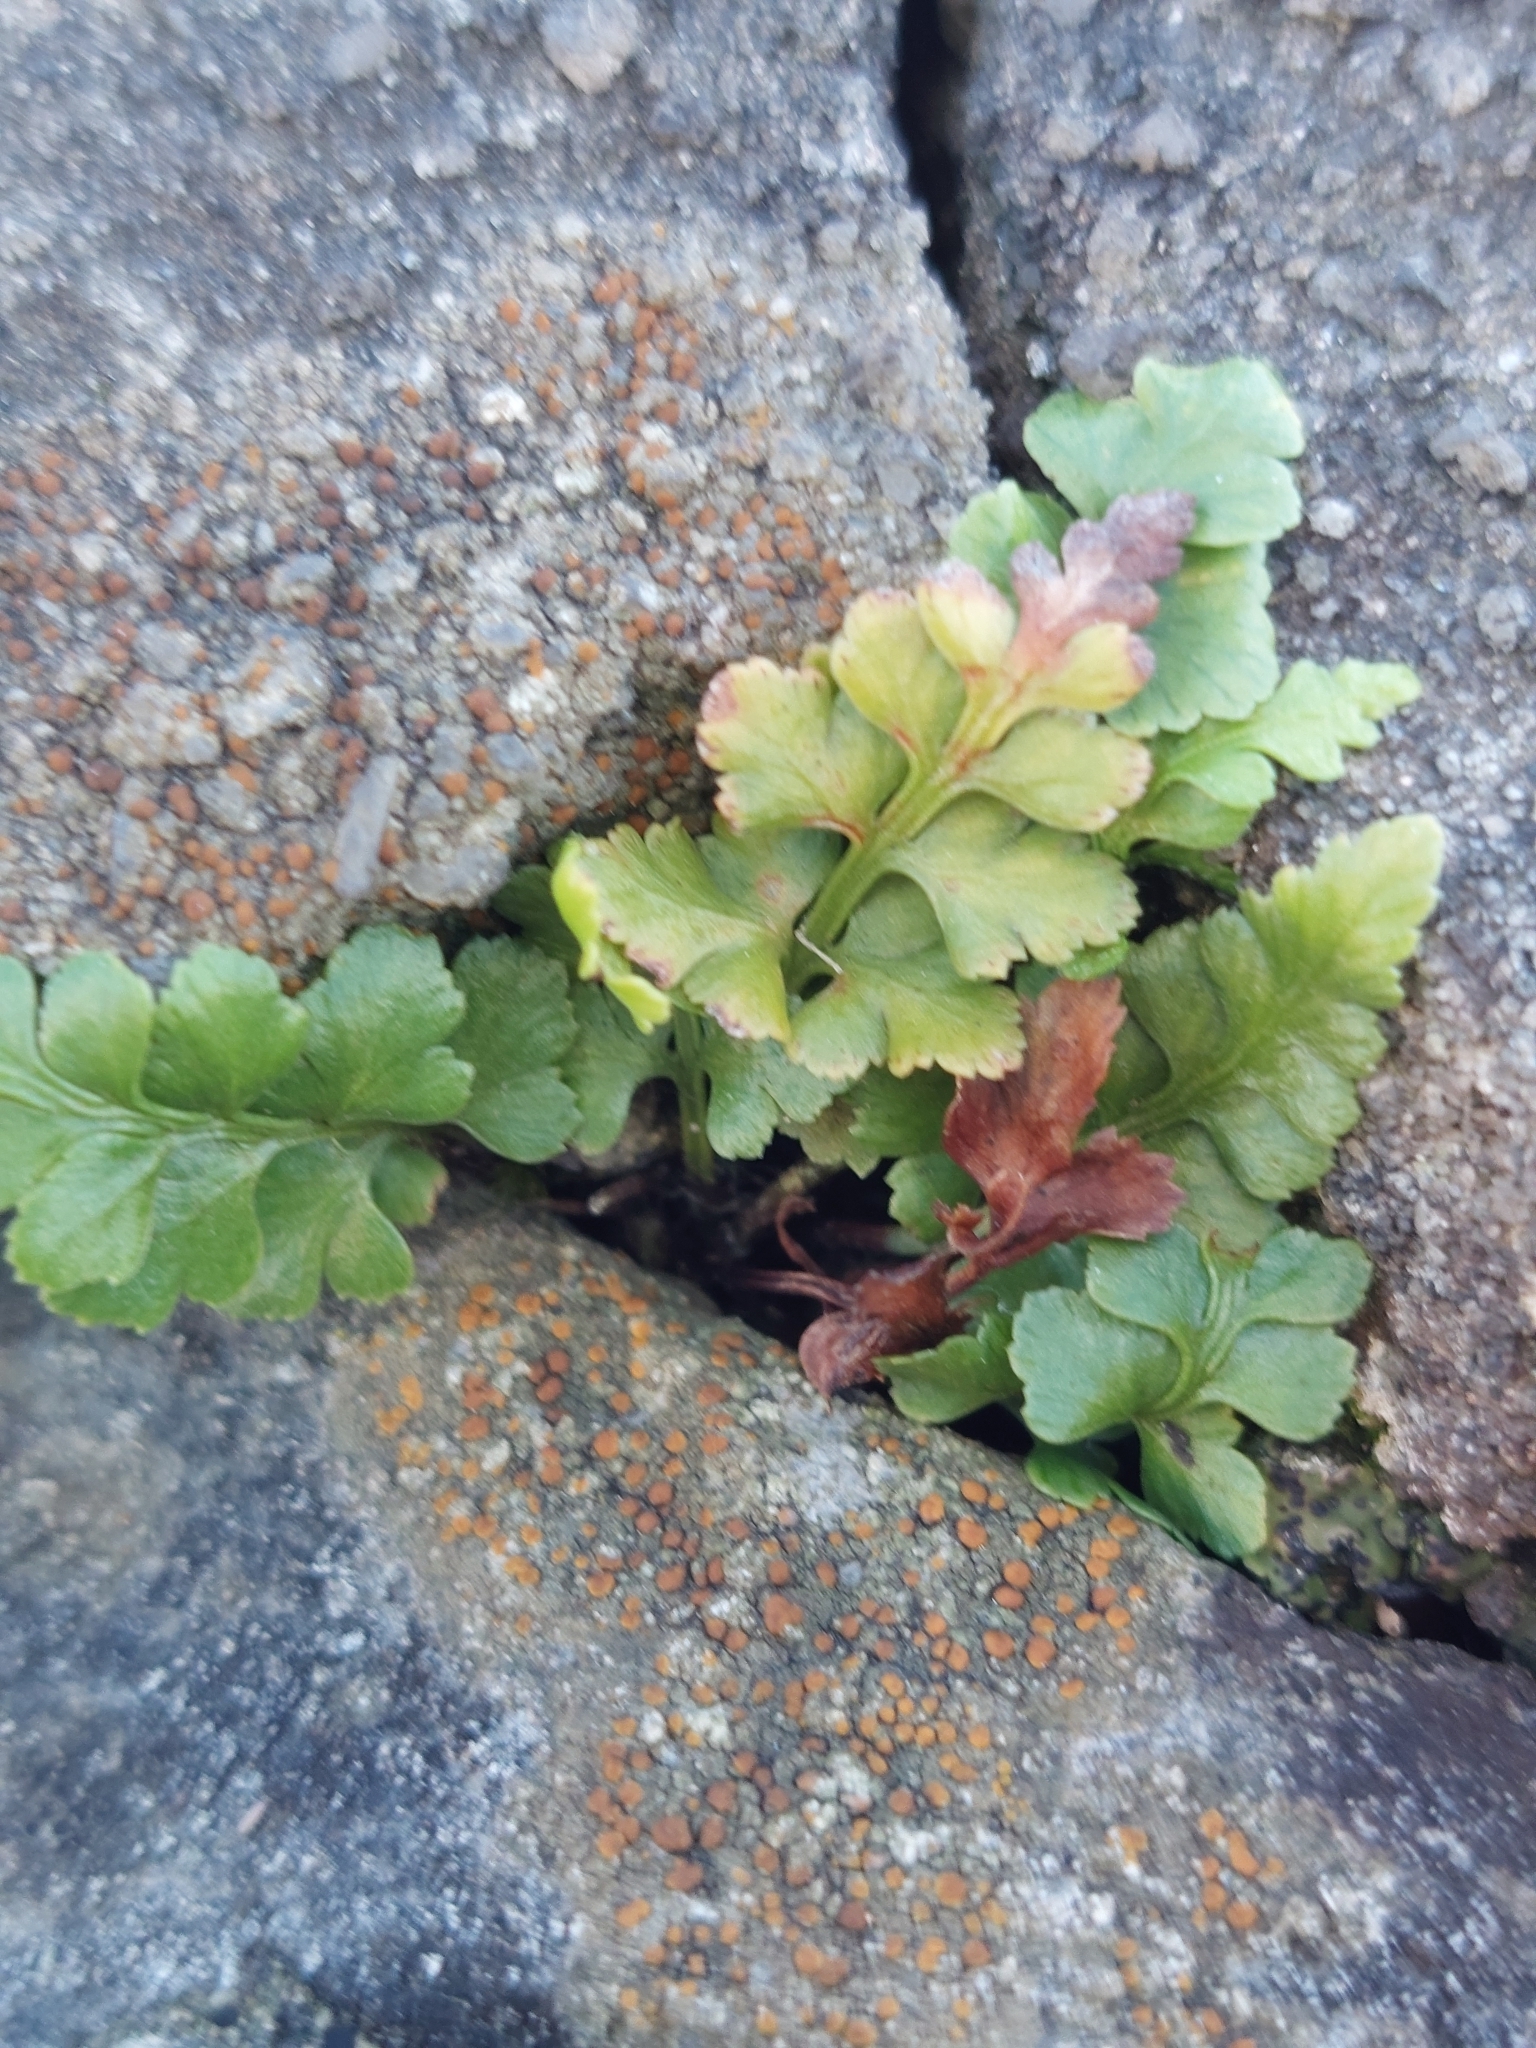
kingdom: Plantae
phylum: Tracheophyta
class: Polypodiopsida
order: Polypodiales
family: Aspleniaceae
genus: Asplenium
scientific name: Asplenium adiantum-nigrum
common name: Black spleenwort
